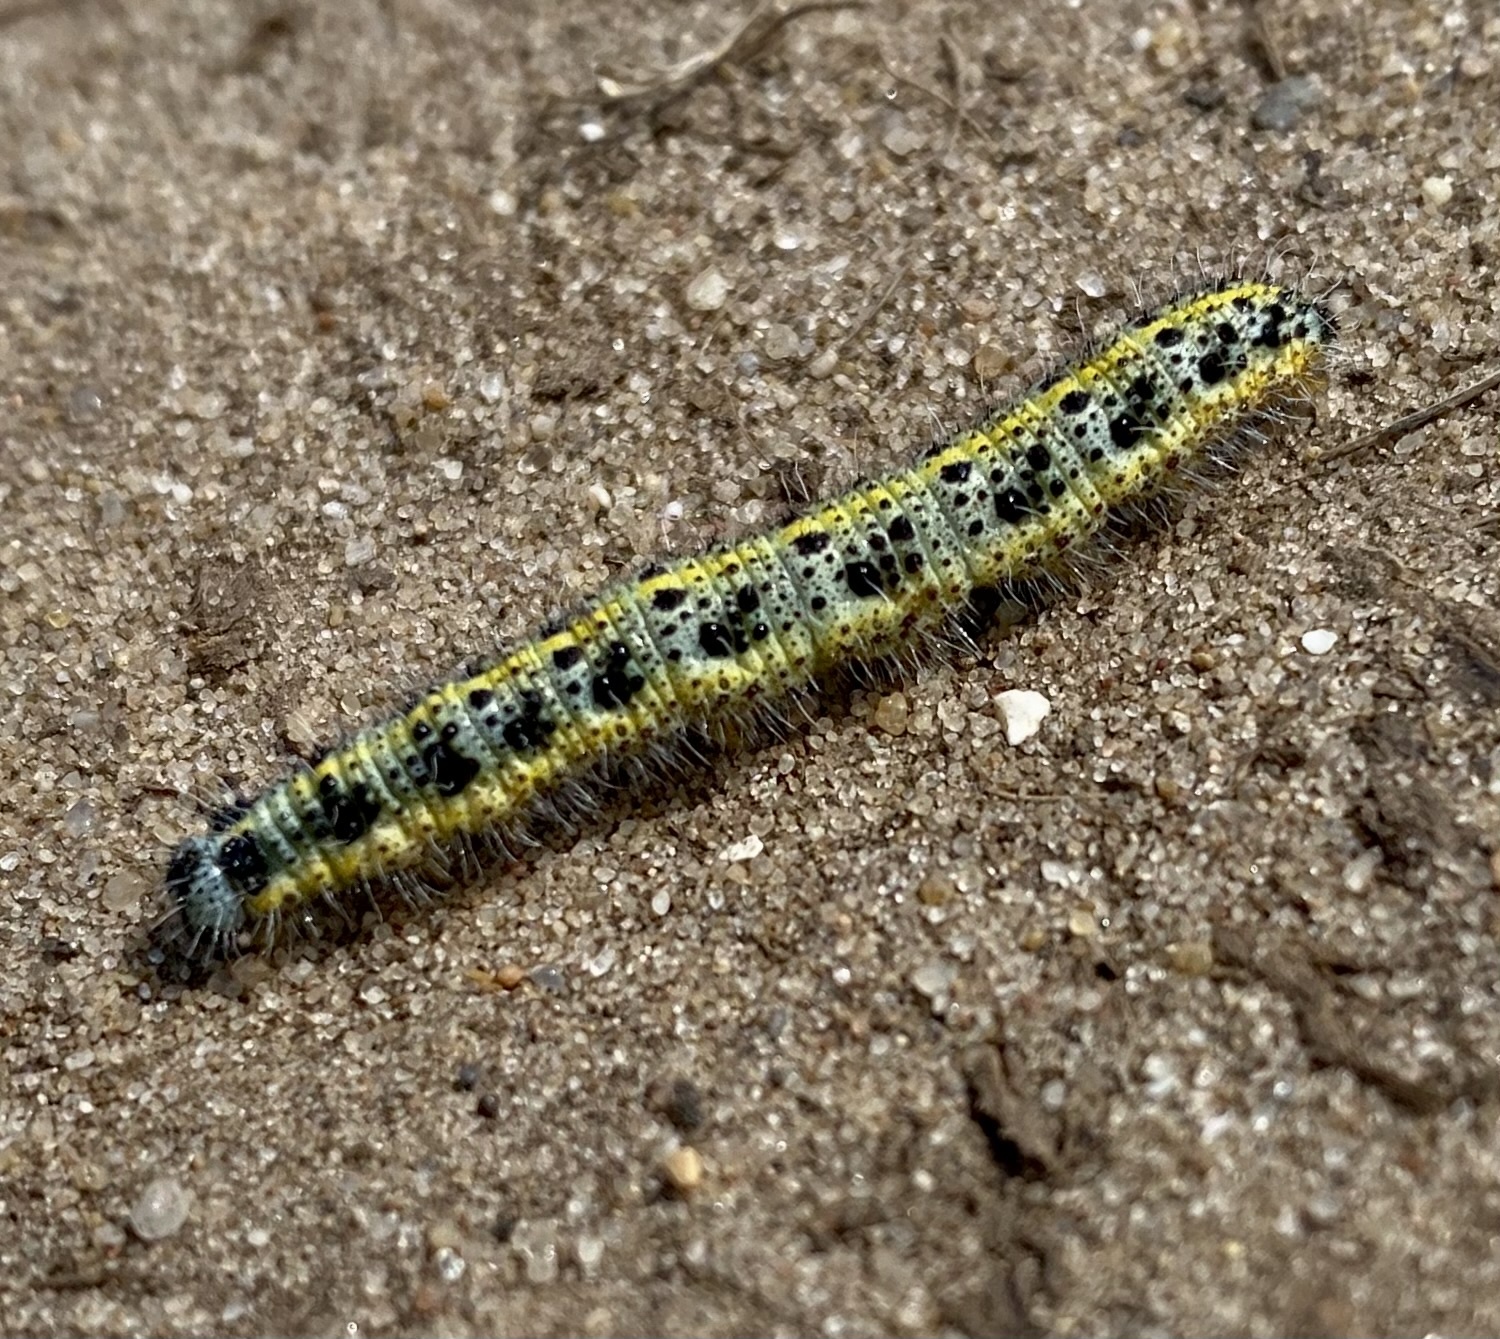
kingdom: Animalia
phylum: Arthropoda
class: Insecta
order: Lepidoptera
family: Pieridae
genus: Pieris
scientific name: Pieris brassicae
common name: Large white
